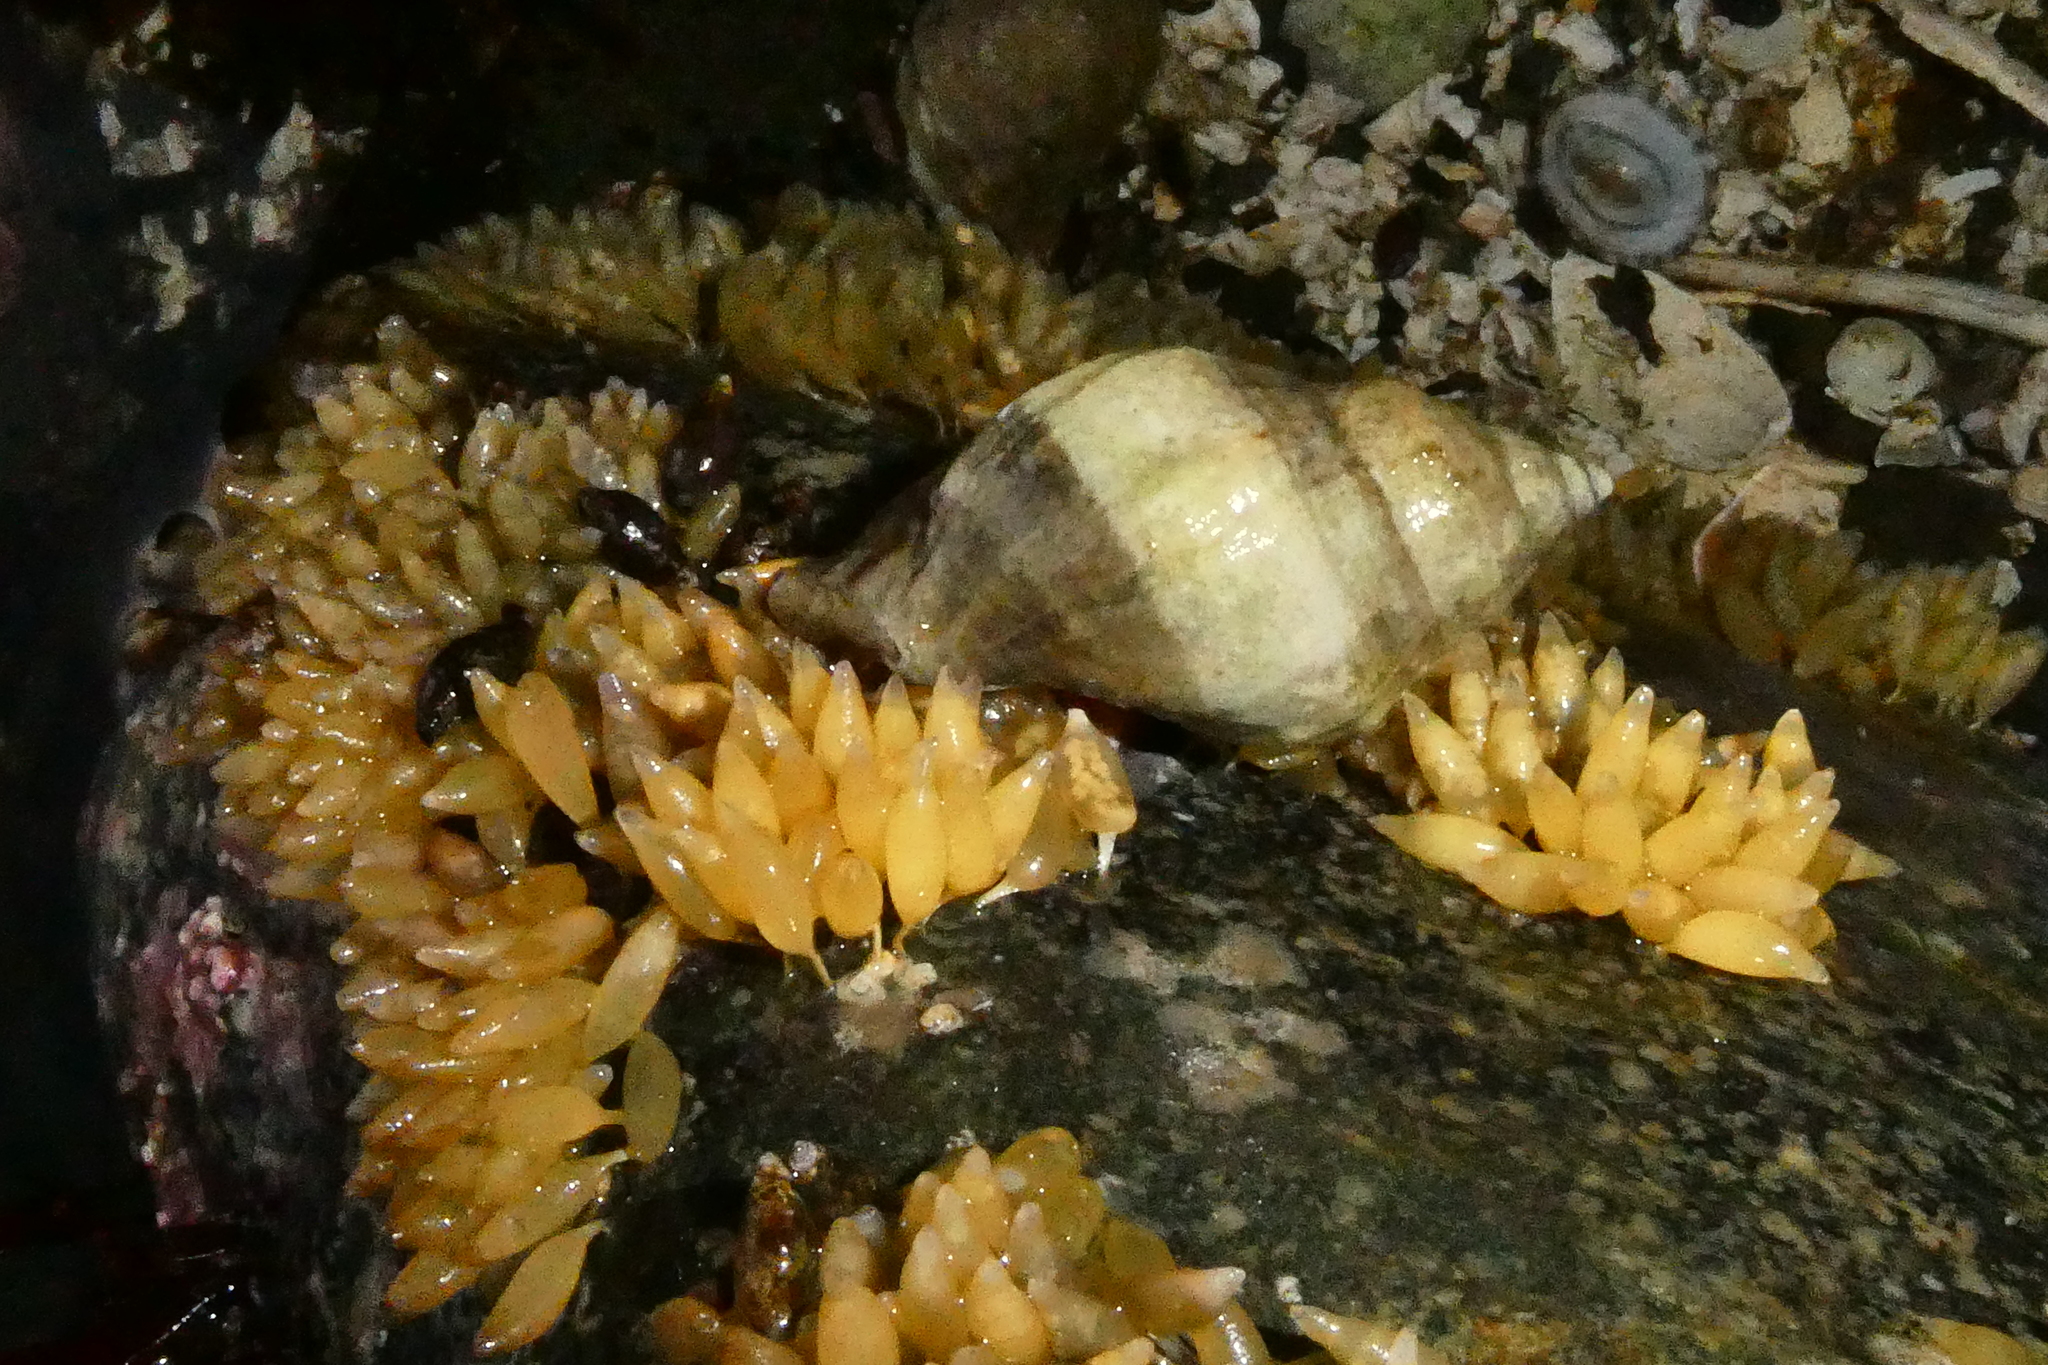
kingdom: Animalia
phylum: Mollusca
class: Gastropoda
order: Neogastropoda
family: Muricidae
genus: Nucella
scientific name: Nucella lamellosa
